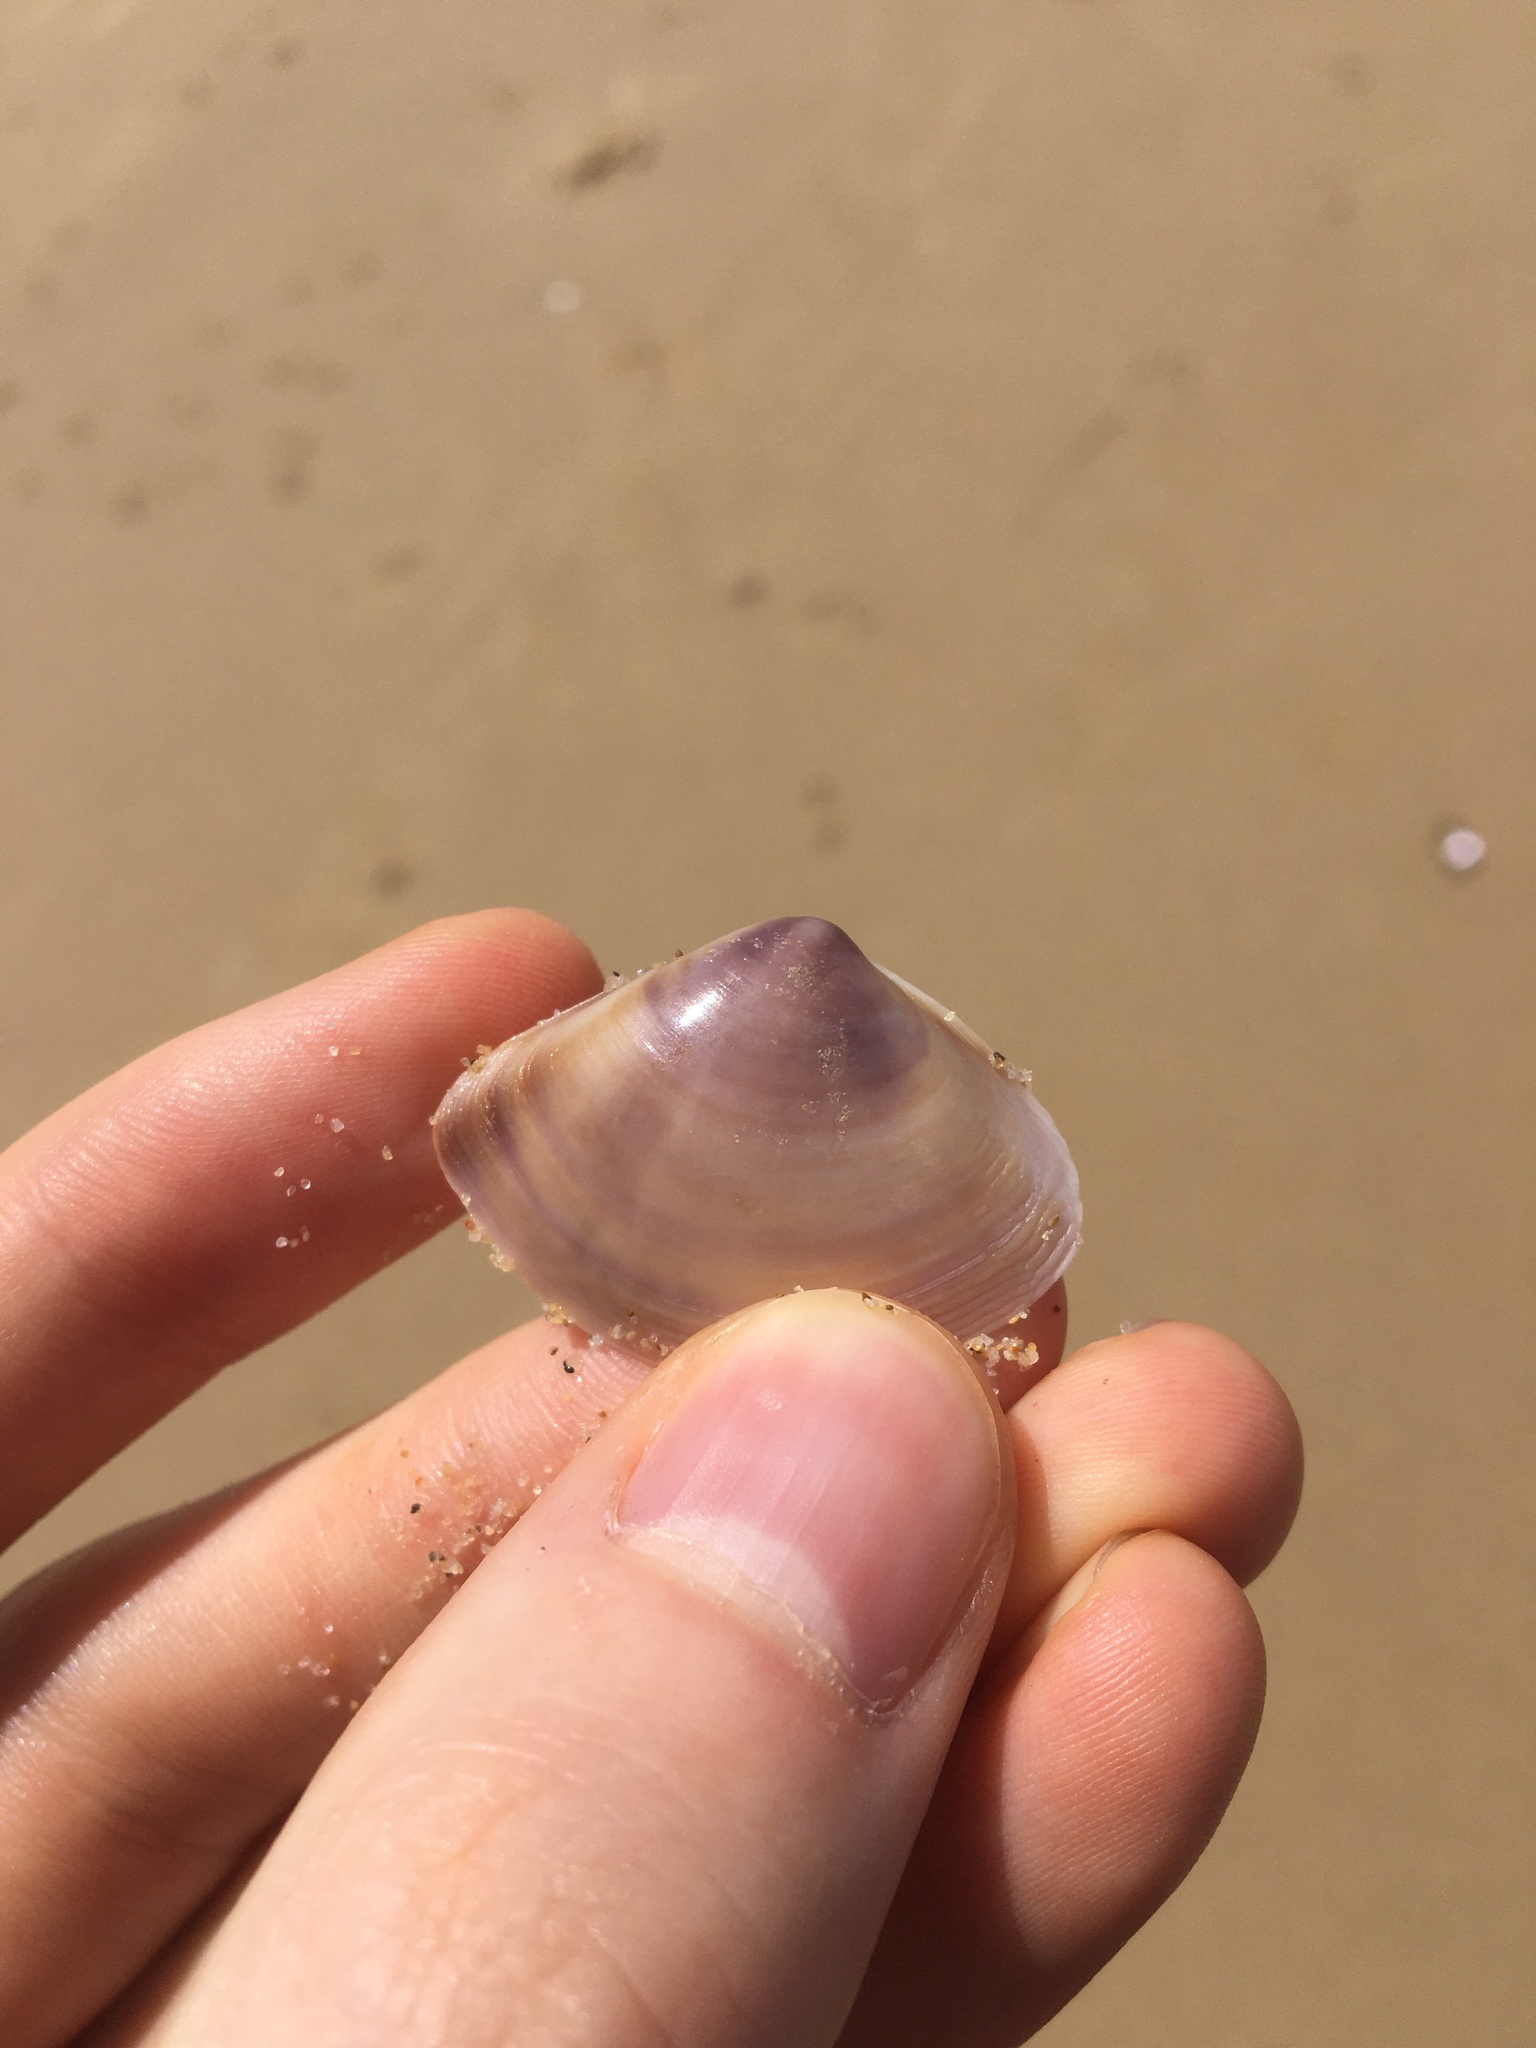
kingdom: Animalia
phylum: Mollusca
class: Bivalvia
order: Venerida
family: Mactridae
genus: Austromactra
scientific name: Austromactra contraria
